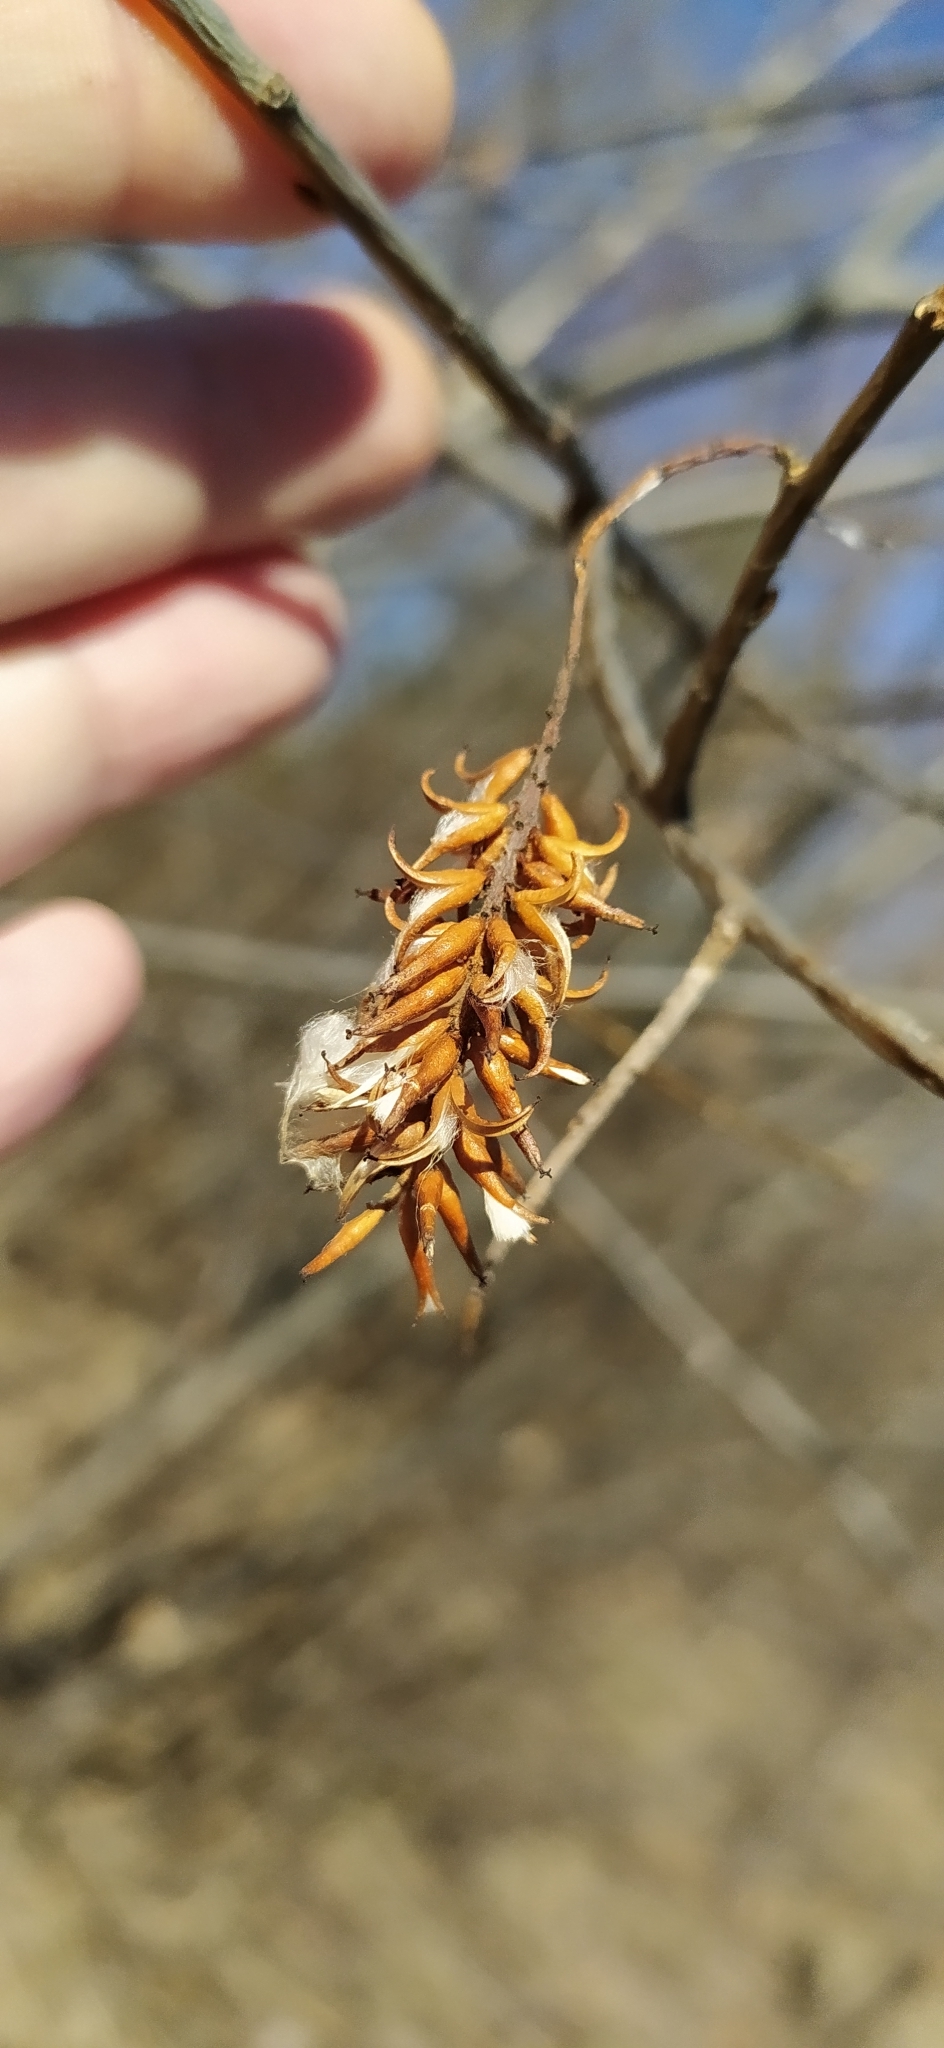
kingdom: Plantae
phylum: Tracheophyta
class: Magnoliopsida
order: Malpighiales
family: Salicaceae
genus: Salix
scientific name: Salix pentandra
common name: Bay willow
